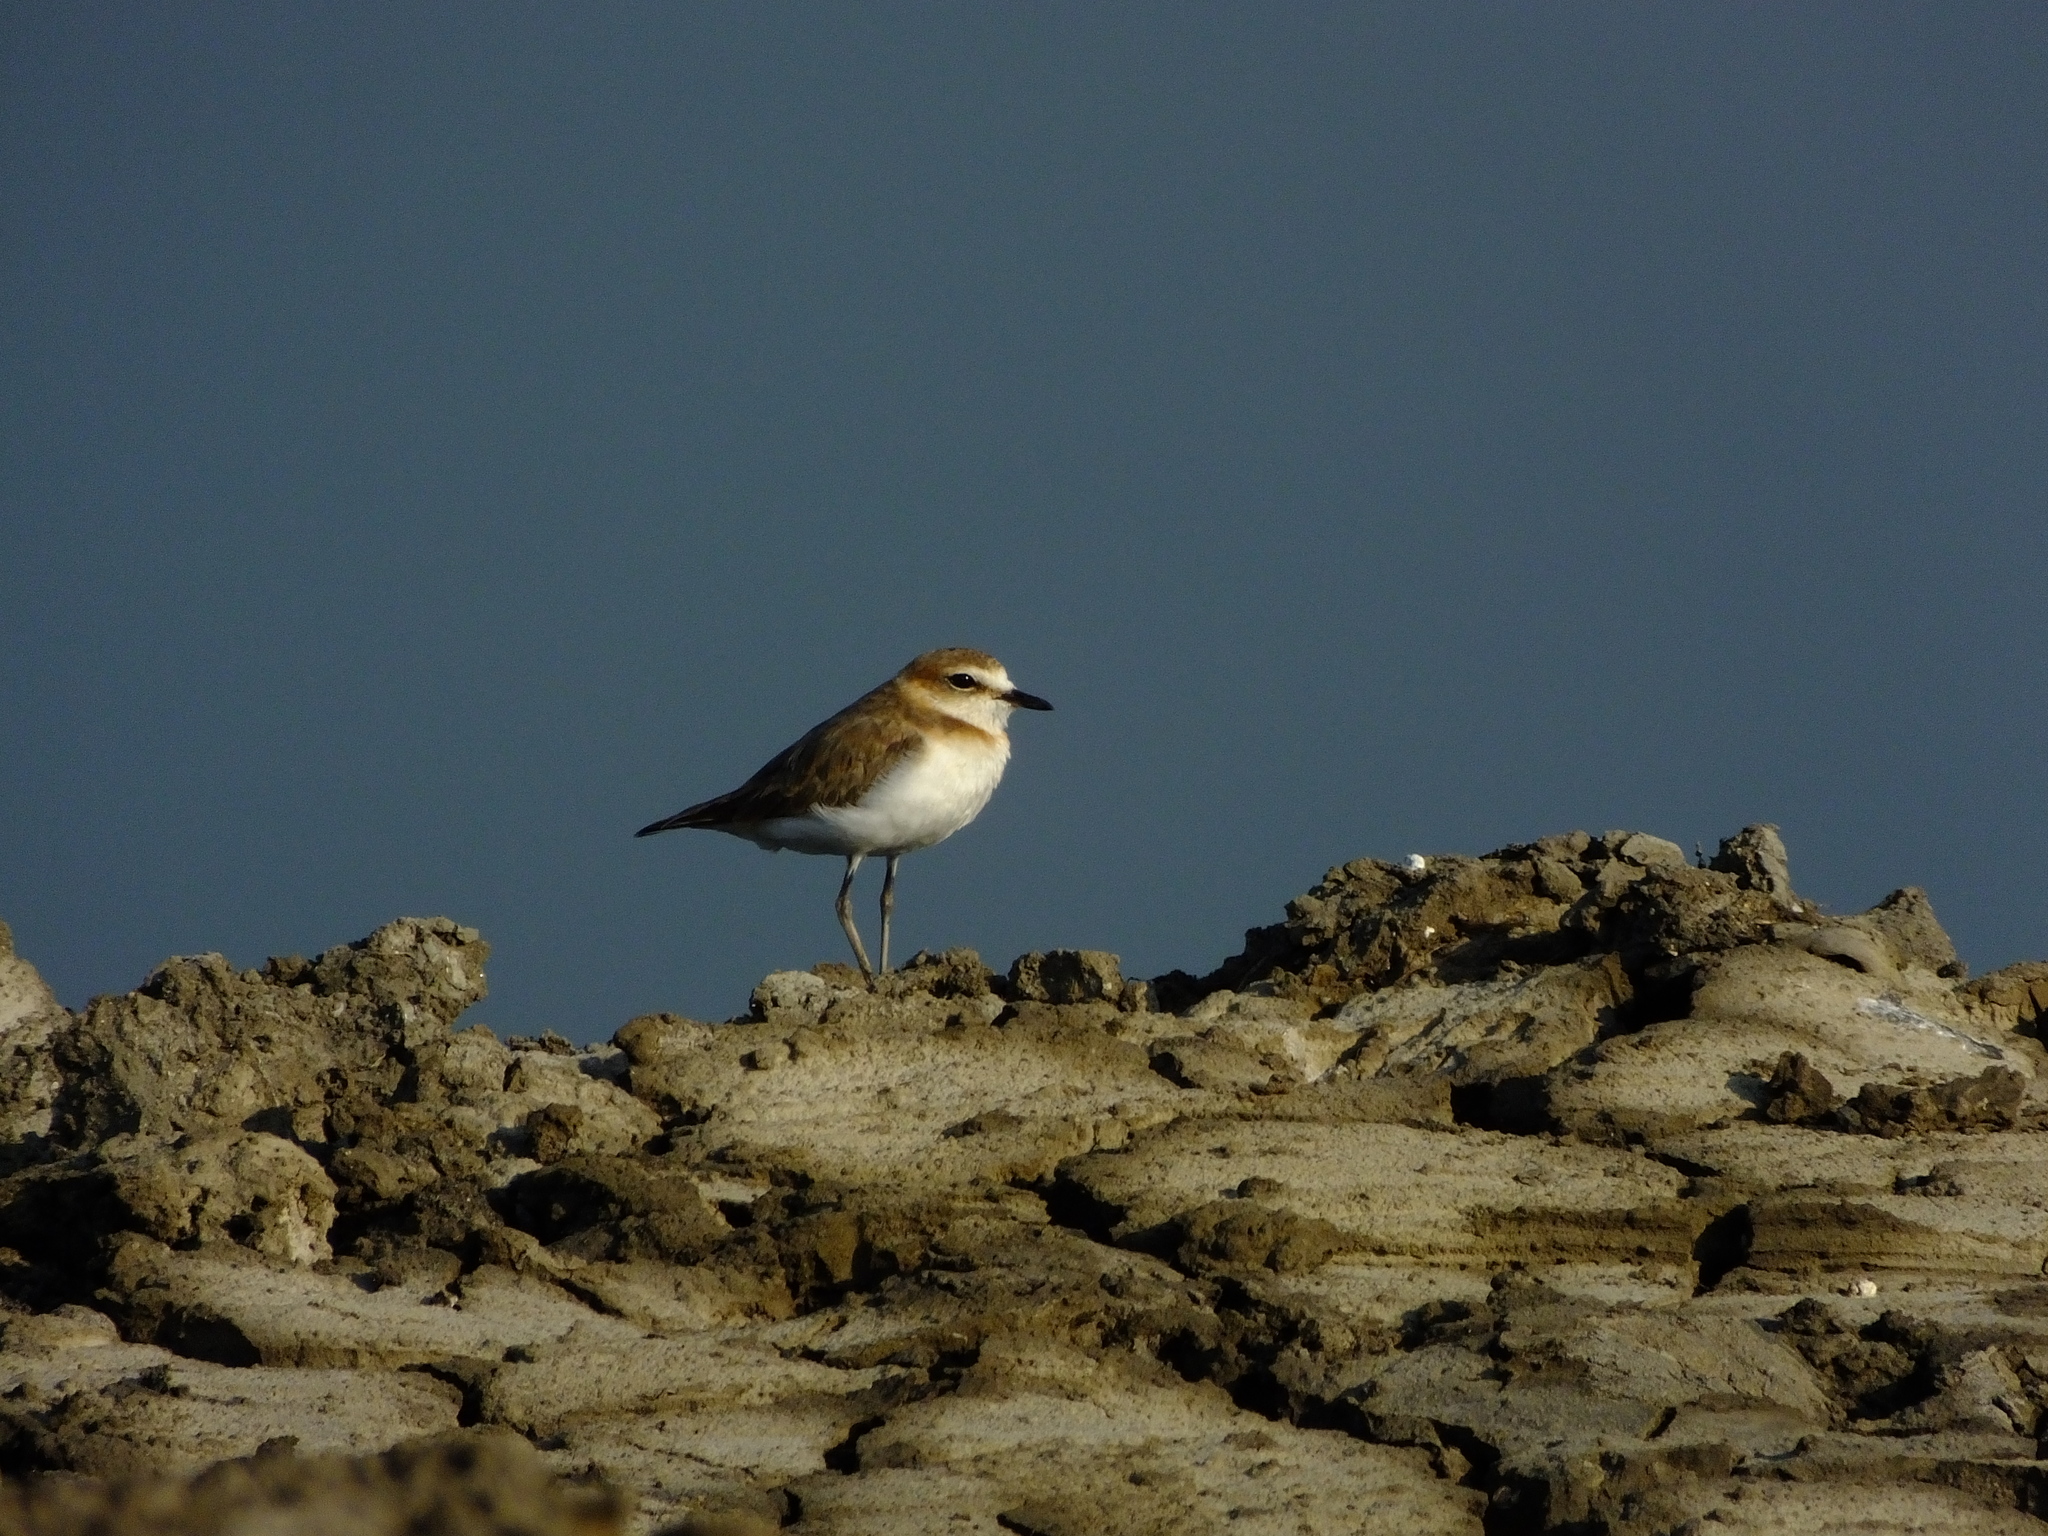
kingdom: Animalia
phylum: Chordata
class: Aves
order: Charadriiformes
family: Charadriidae
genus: Anarhynchus
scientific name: Anarhynchus
